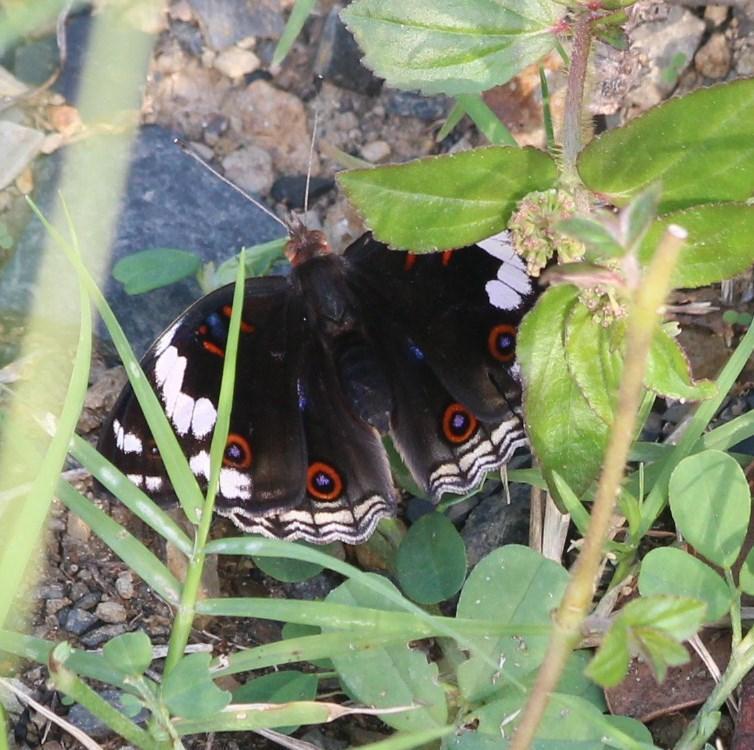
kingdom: Animalia
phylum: Arthropoda
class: Insecta
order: Lepidoptera
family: Nymphalidae
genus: Junonia
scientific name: Junonia oenone
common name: Dark blue pansy
